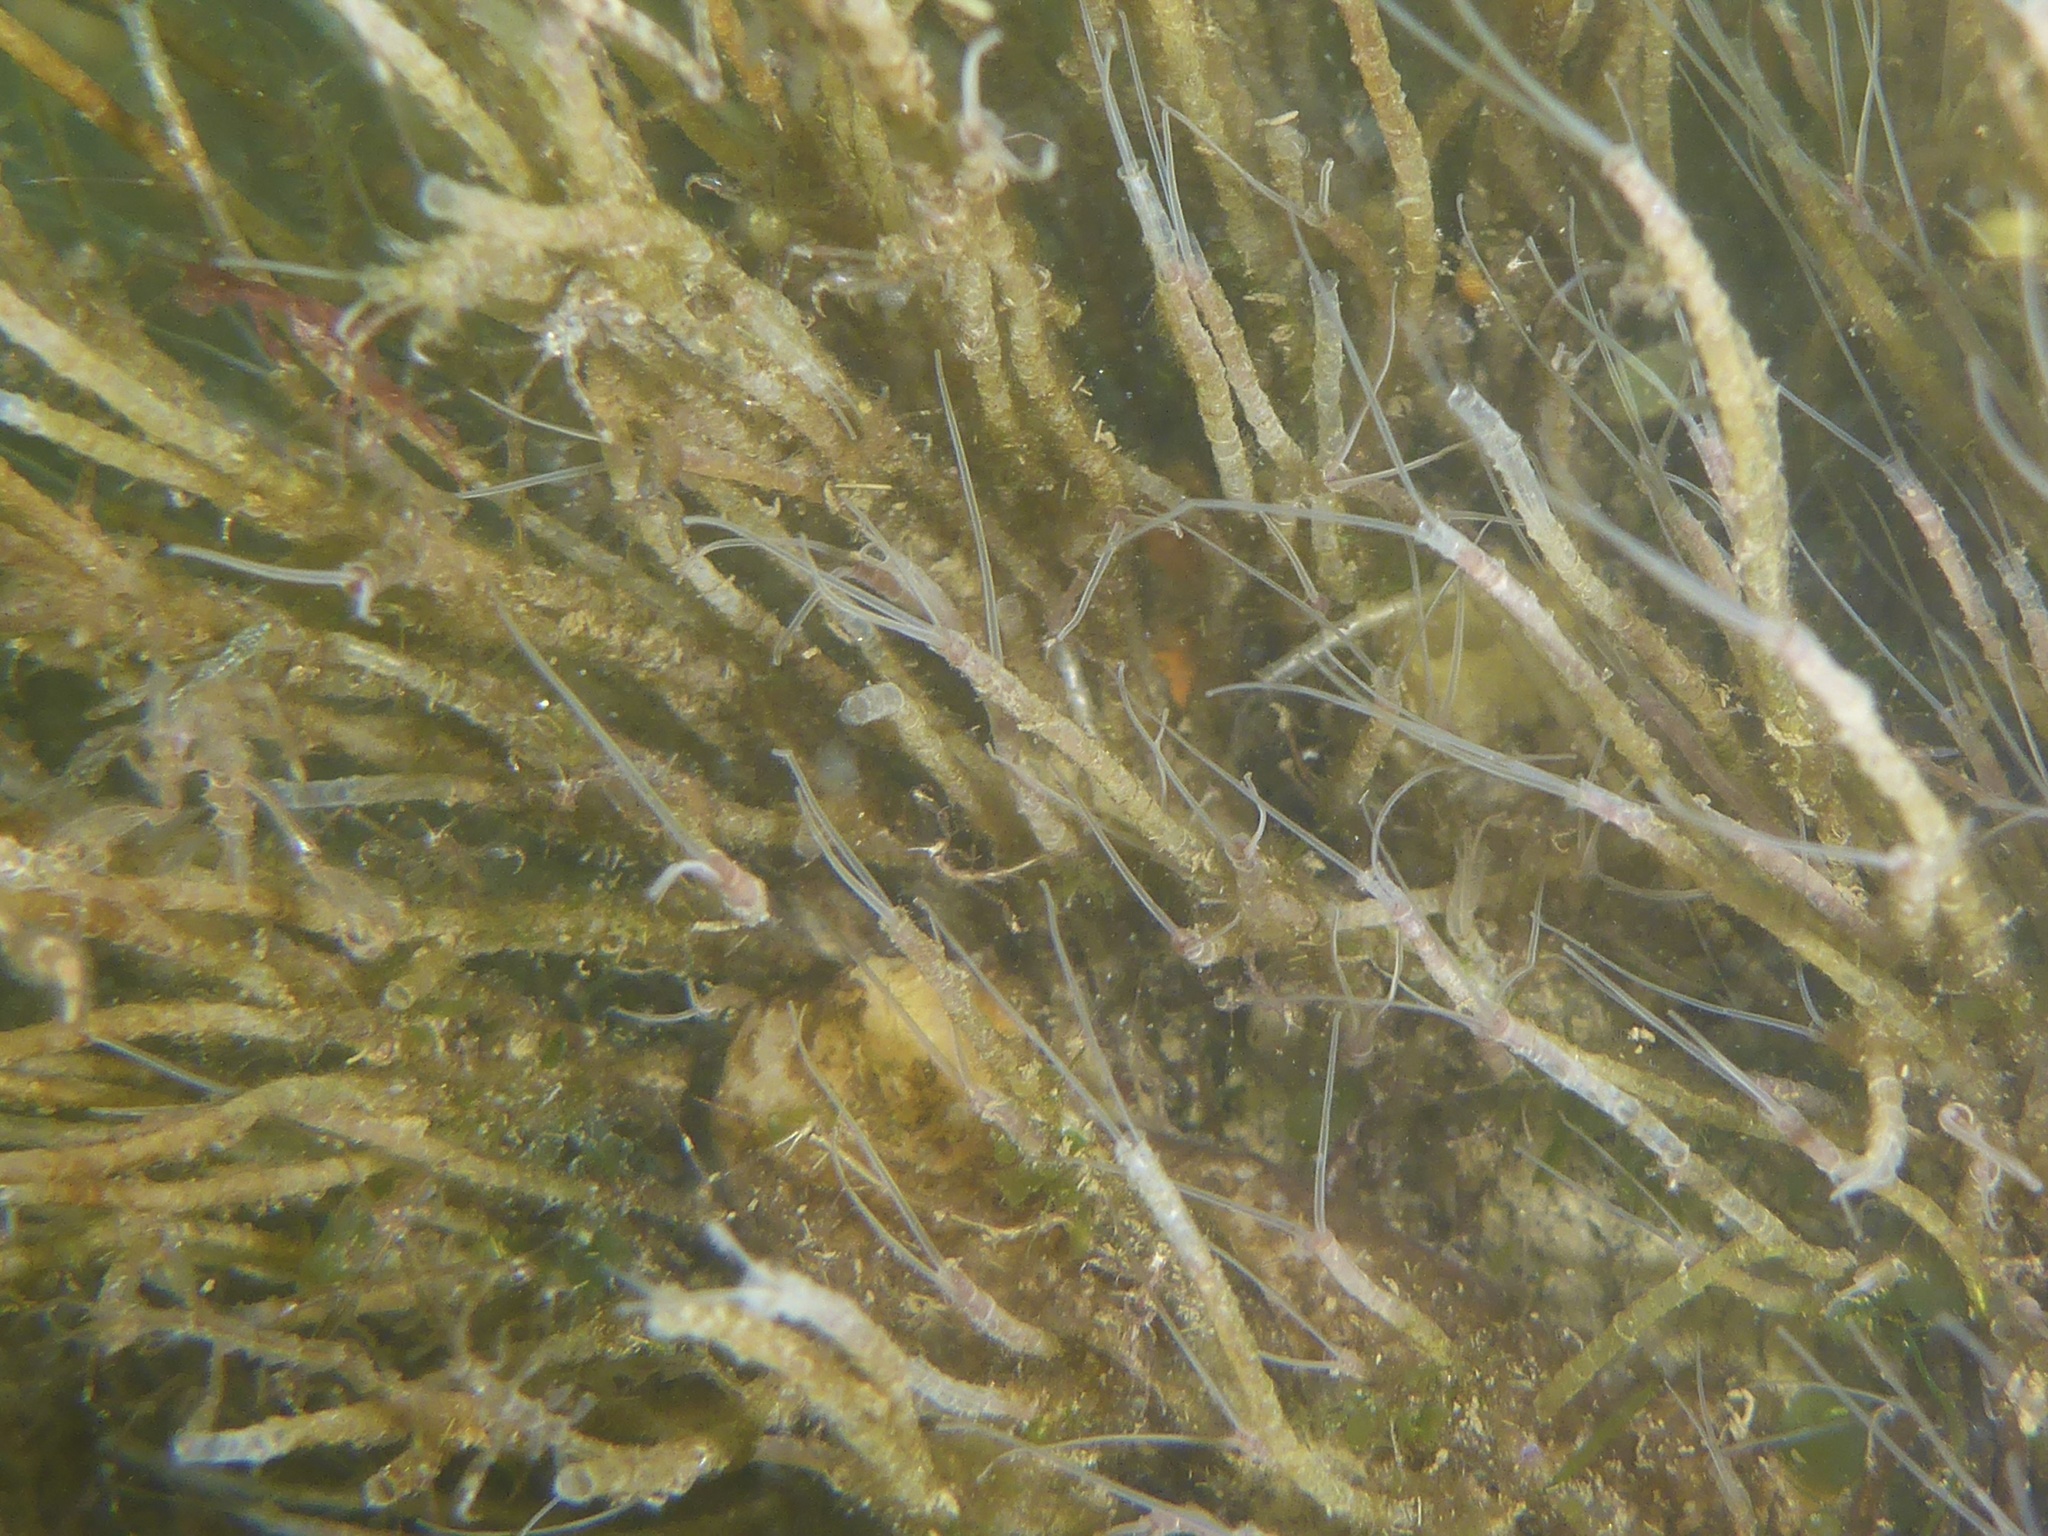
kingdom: Animalia
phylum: Annelida
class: Polychaeta
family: Chaetopteridae
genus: Phyllochaetopterus
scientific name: Phyllochaetopterus prolifica
